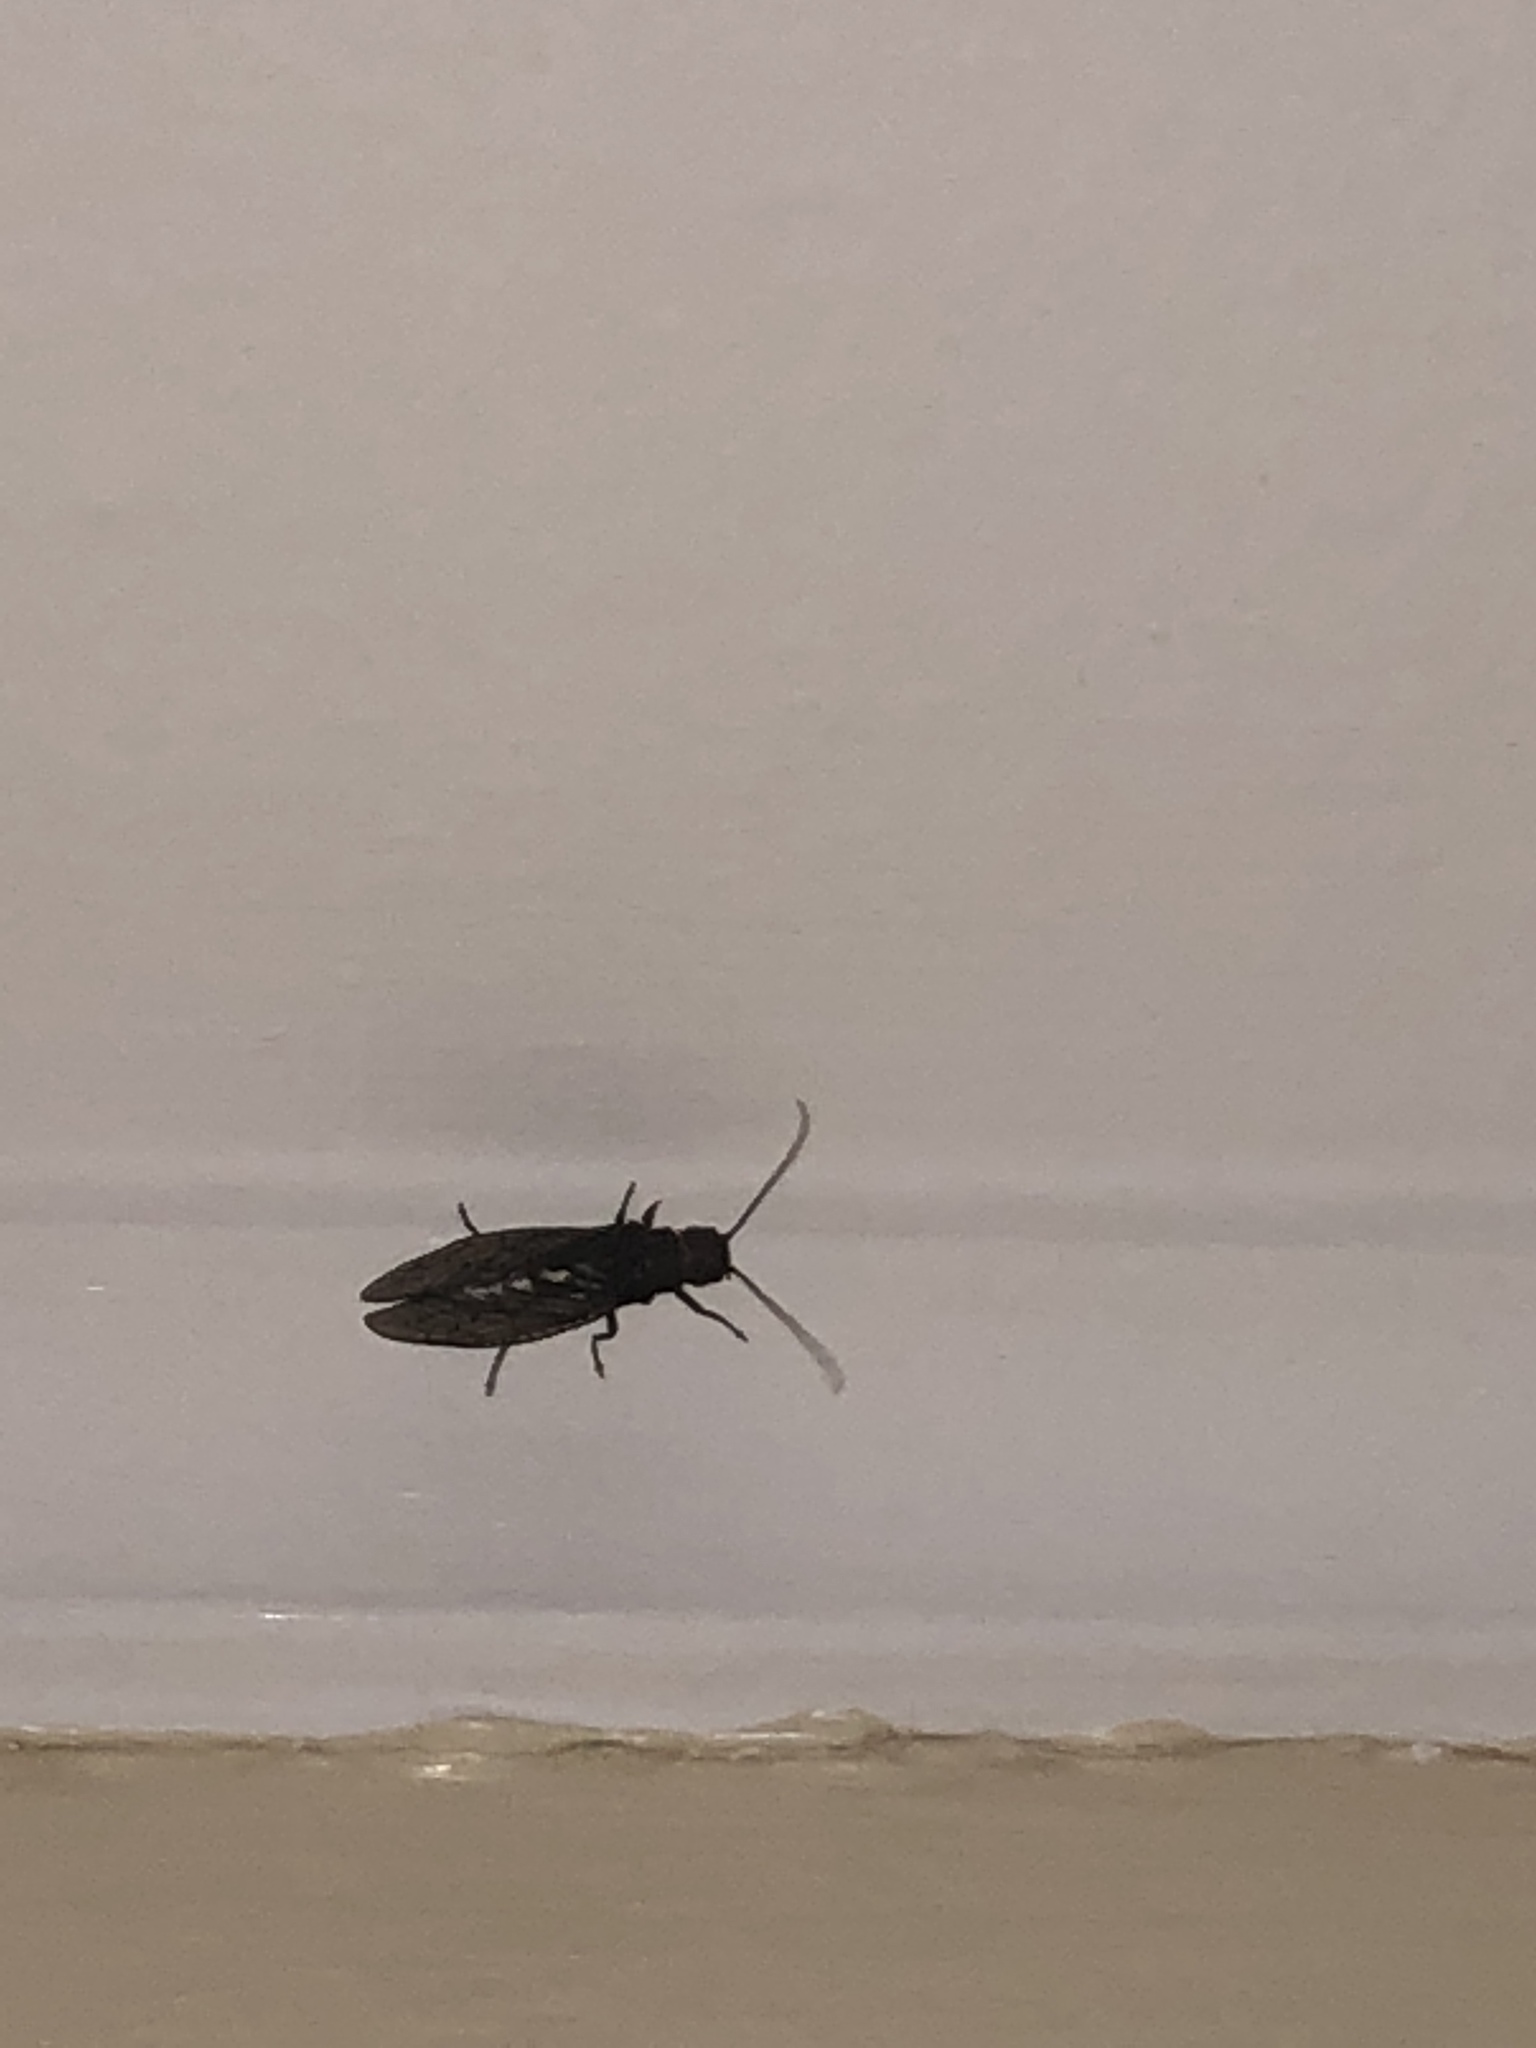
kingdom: Animalia
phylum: Arthropoda
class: Insecta
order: Megaloptera
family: Sialidae
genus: Sialis
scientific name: Sialis
